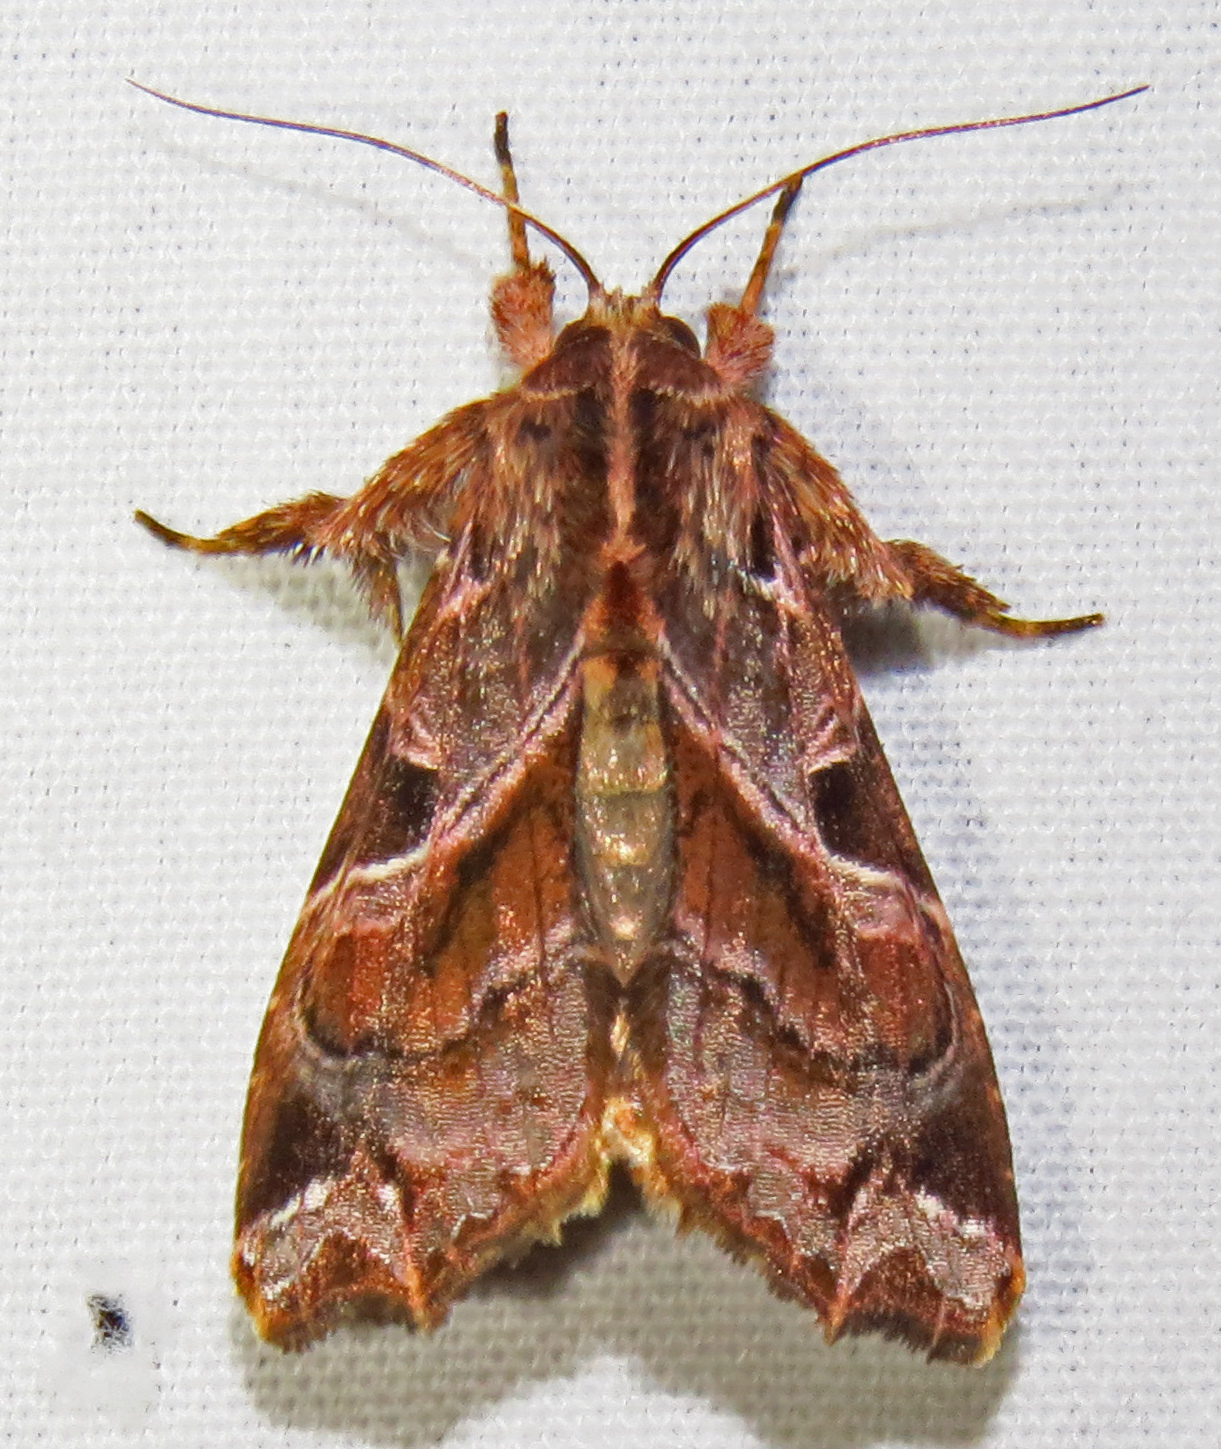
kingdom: Animalia
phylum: Arthropoda
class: Insecta
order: Lepidoptera
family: Noctuidae
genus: Callopistria
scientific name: Callopistria floridensis
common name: Florida fern moth
